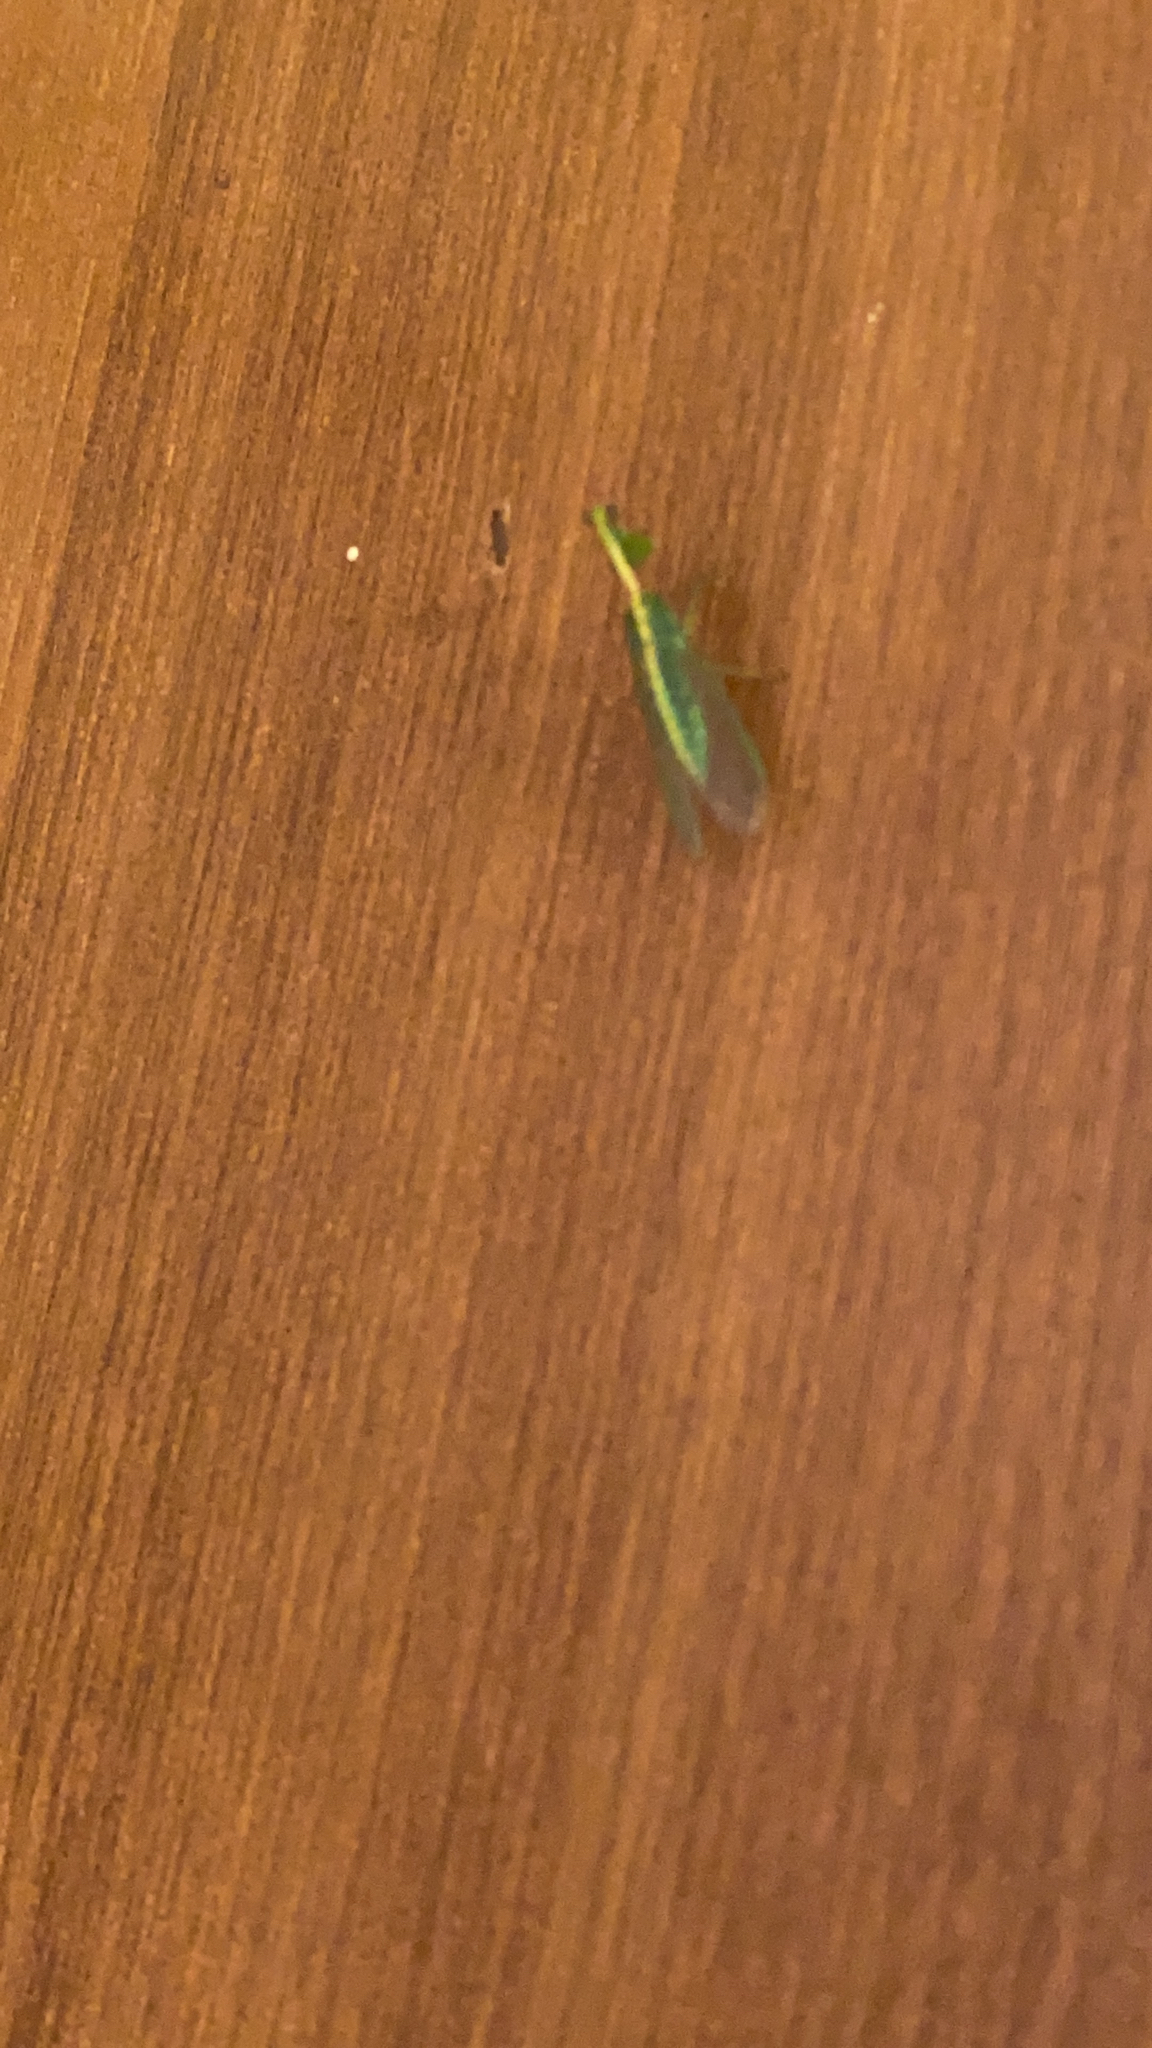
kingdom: Animalia
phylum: Arthropoda
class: Insecta
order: Neuroptera
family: Mantispidae
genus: Zeugomantispa
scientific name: Zeugomantispa minuta
